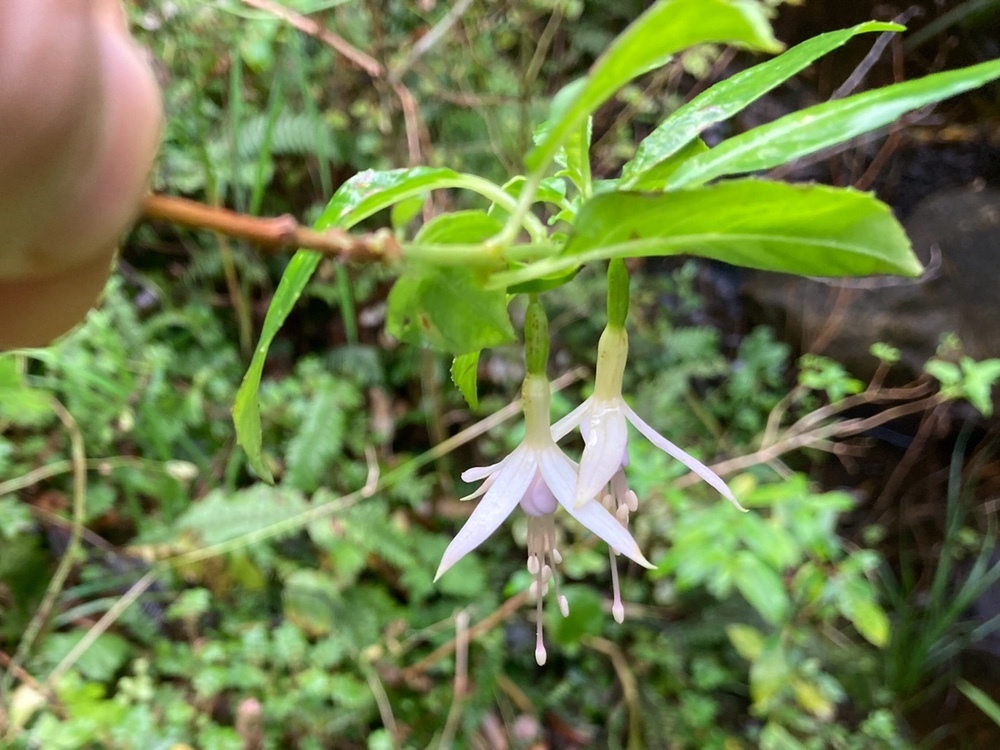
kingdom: Plantae
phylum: Tracheophyta
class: Magnoliopsida
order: Myrtales
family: Onagraceae
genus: Fuchsia
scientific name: Fuchsia magellanica
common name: Hardy fuchsia
